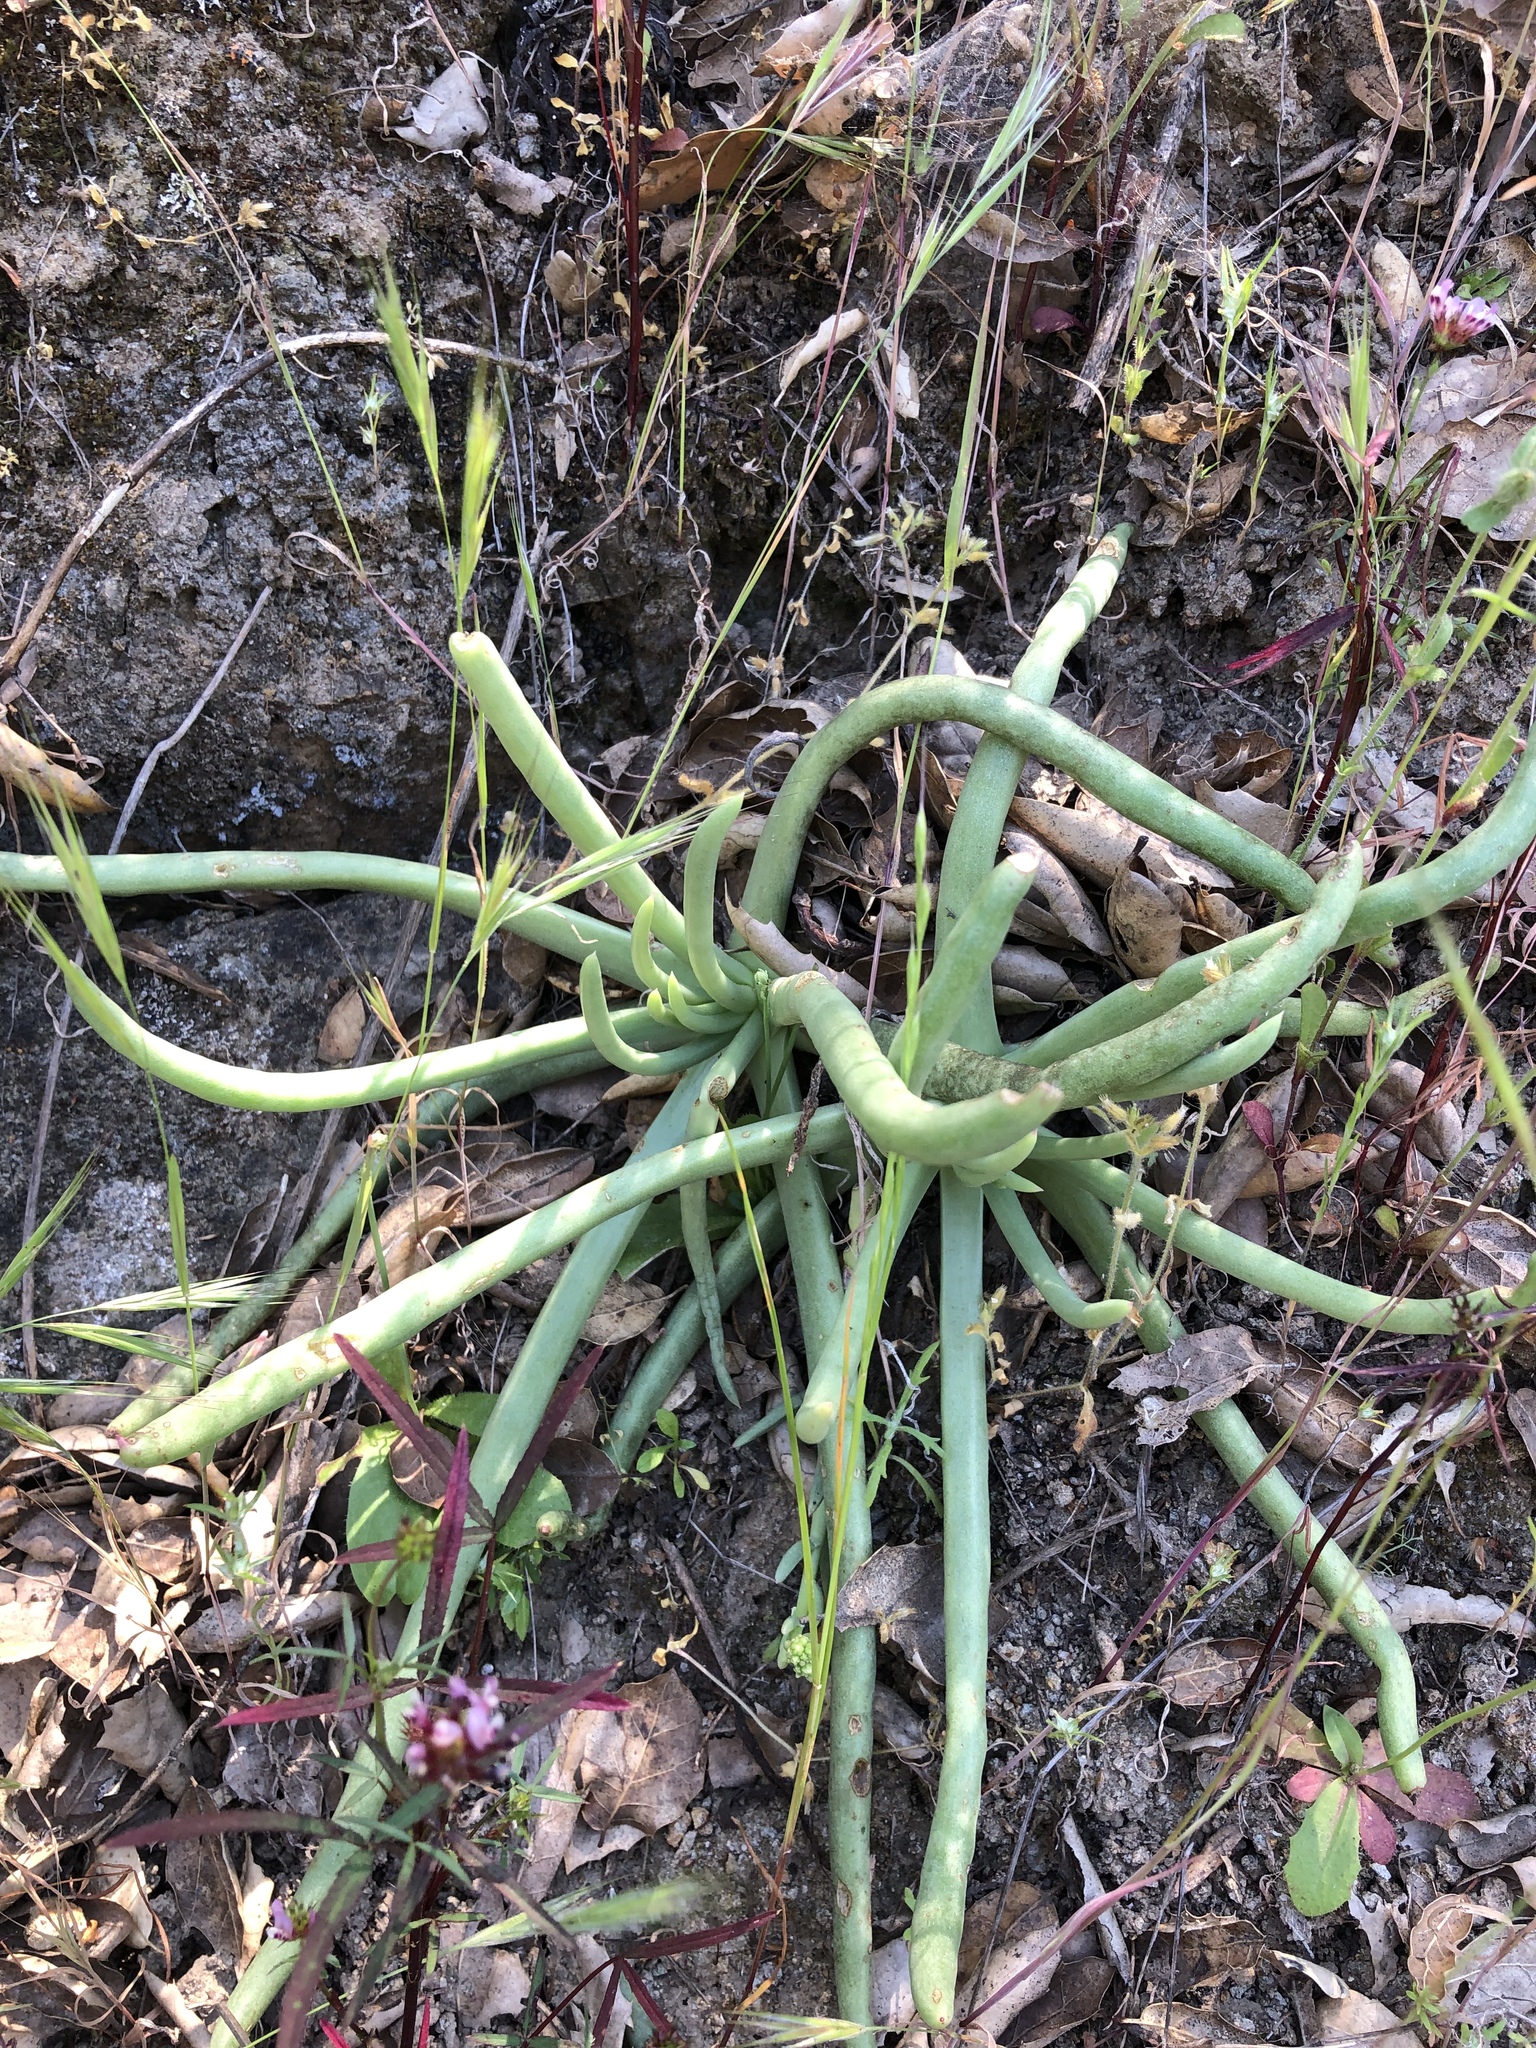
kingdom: Plantae
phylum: Tracheophyta
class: Magnoliopsida
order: Saxifragales
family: Crassulaceae
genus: Dudleya
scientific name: Dudleya edulis
